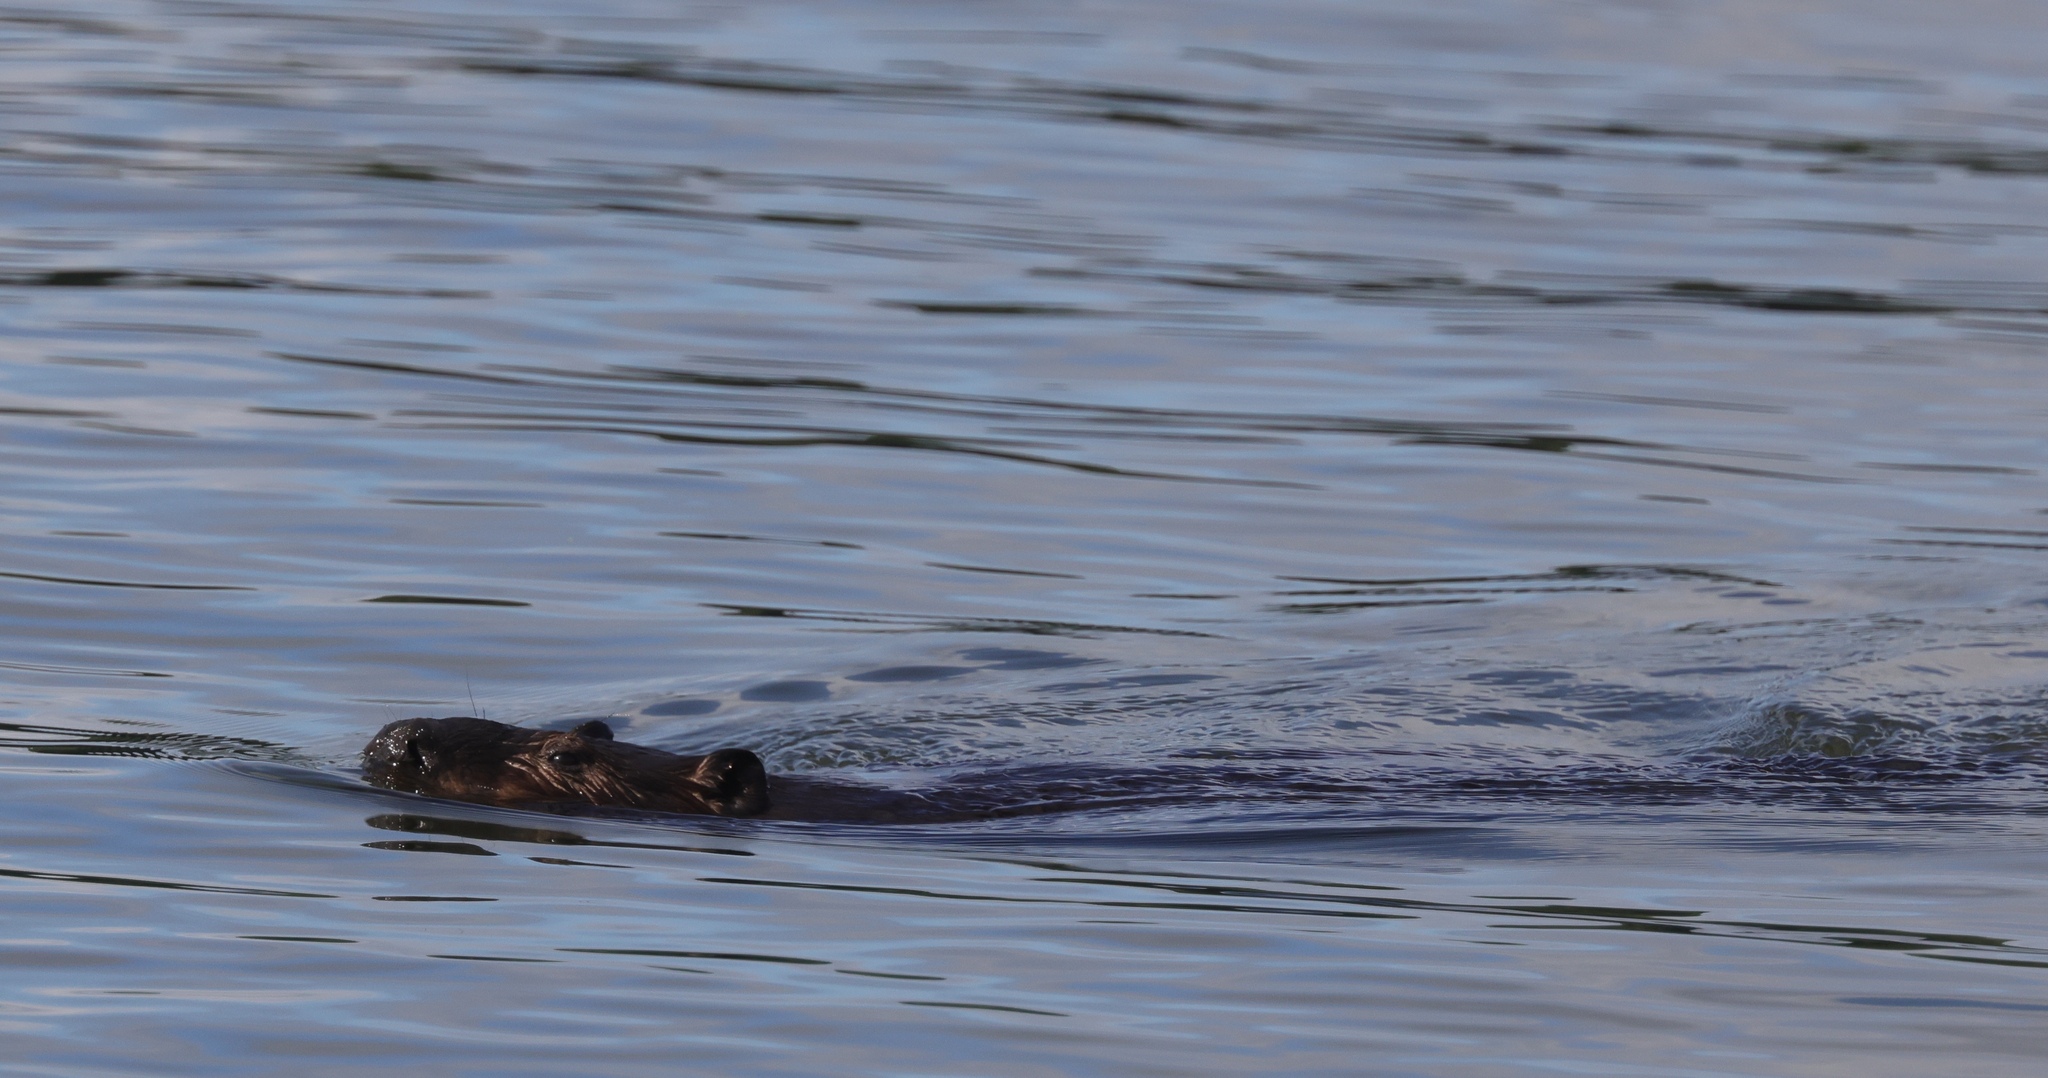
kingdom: Animalia
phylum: Chordata
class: Mammalia
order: Rodentia
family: Castoridae
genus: Castor
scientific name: Castor canadensis
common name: American beaver
